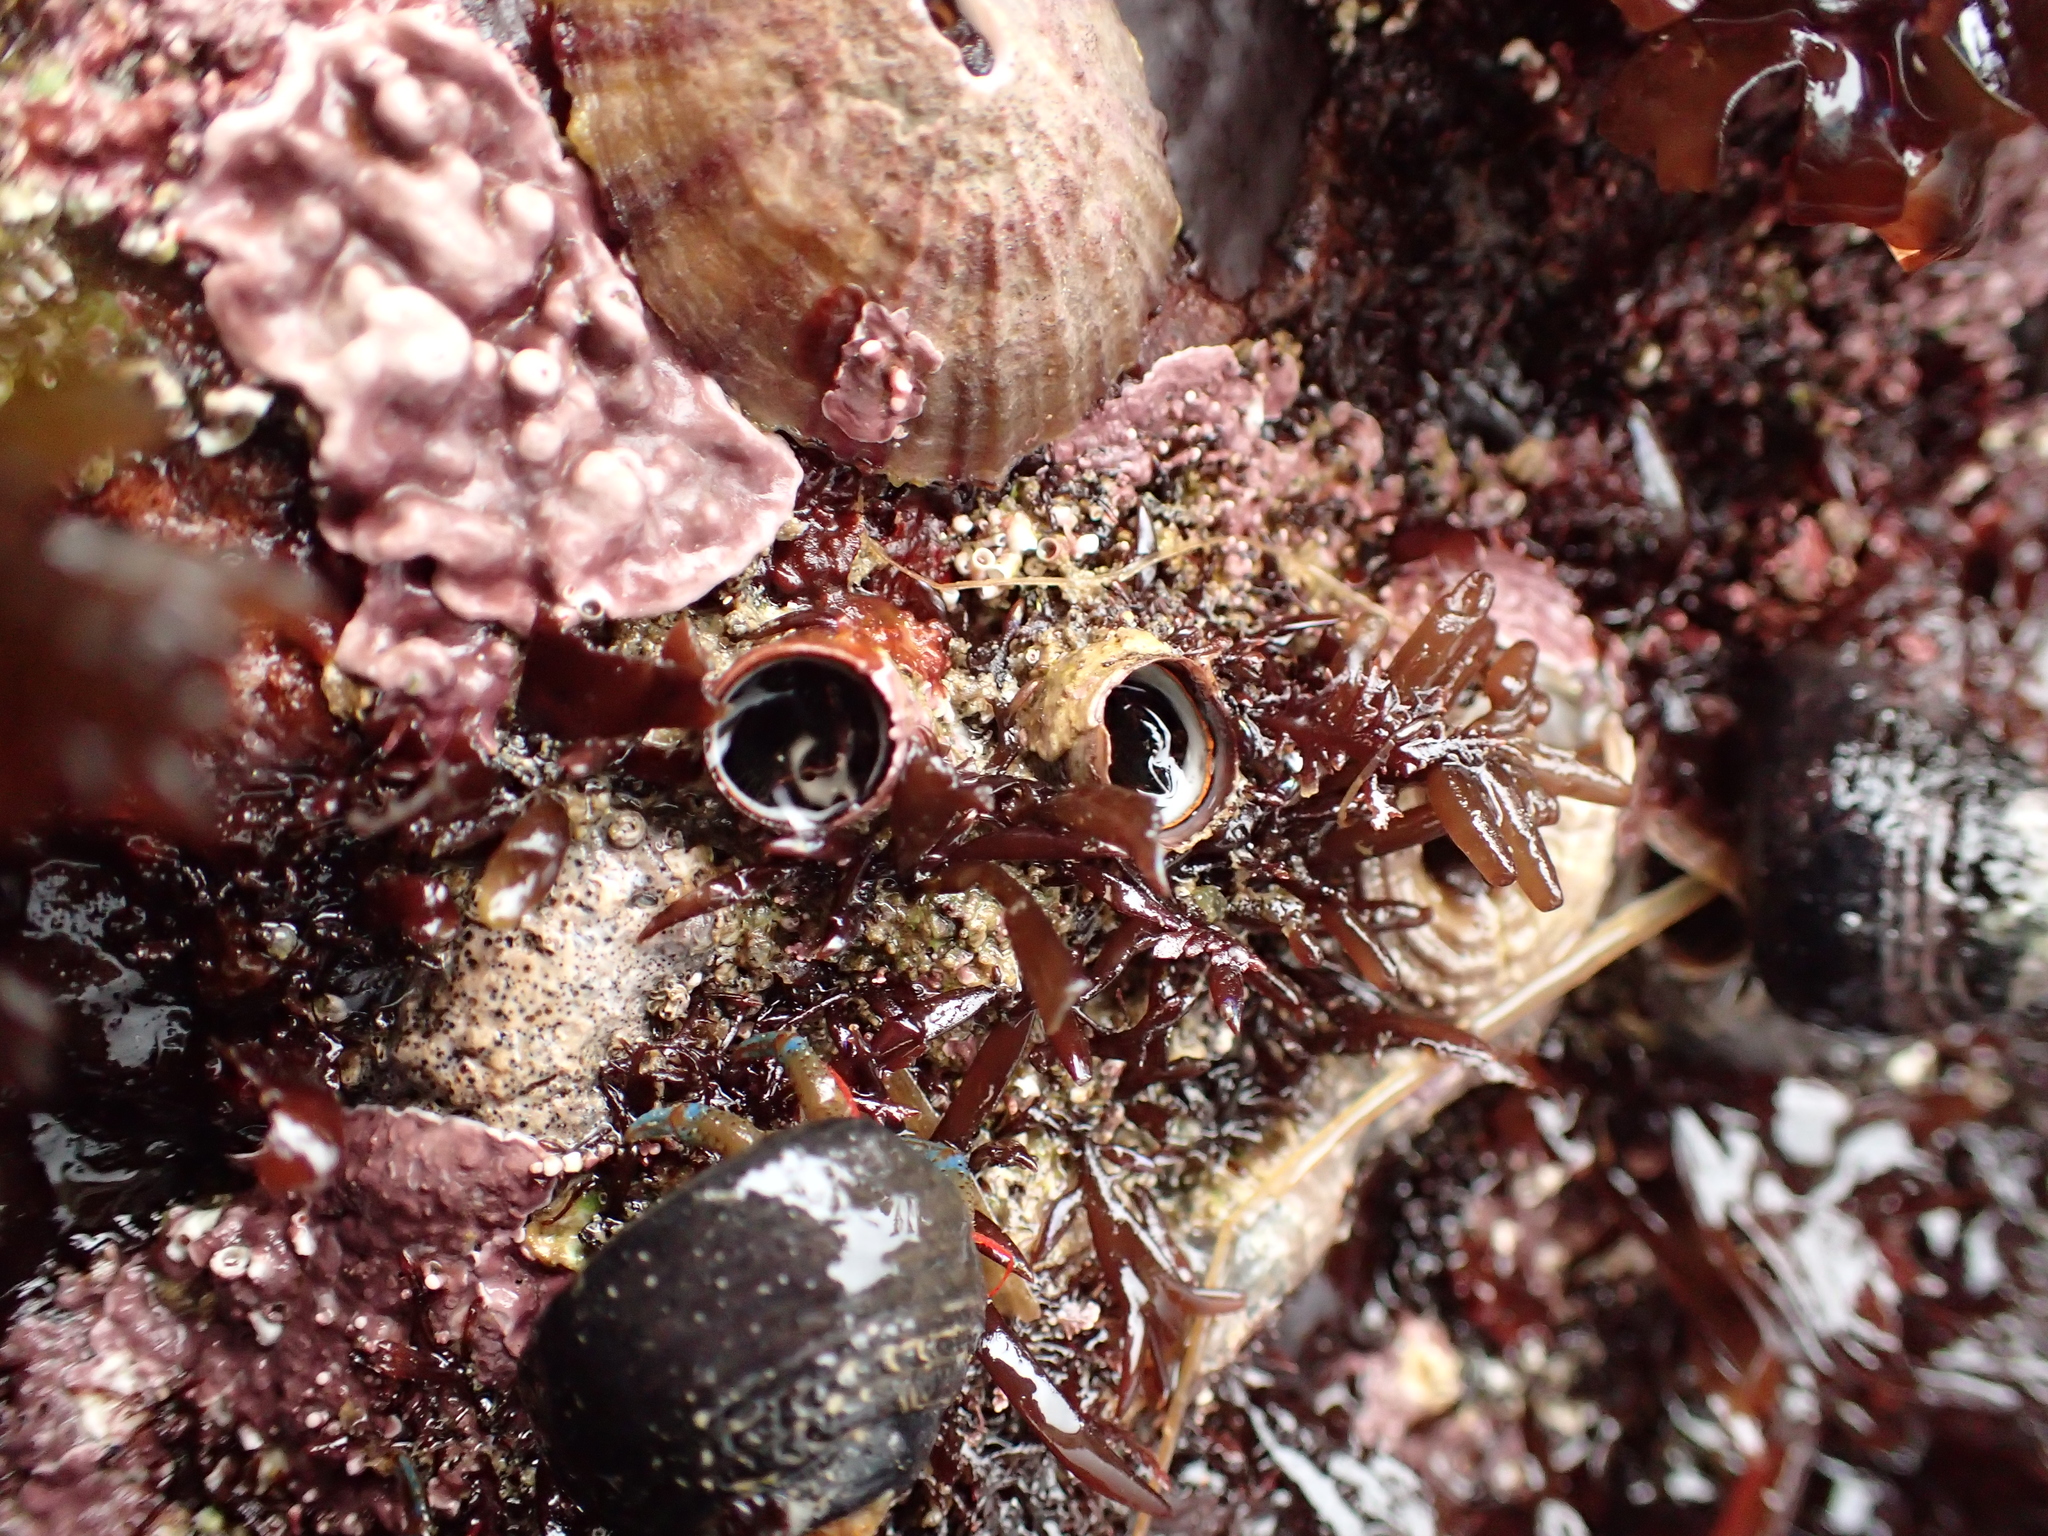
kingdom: Animalia
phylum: Mollusca
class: Gastropoda
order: Littorinimorpha
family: Vermetidae
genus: Thylacodes
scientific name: Thylacodes squamigerus
